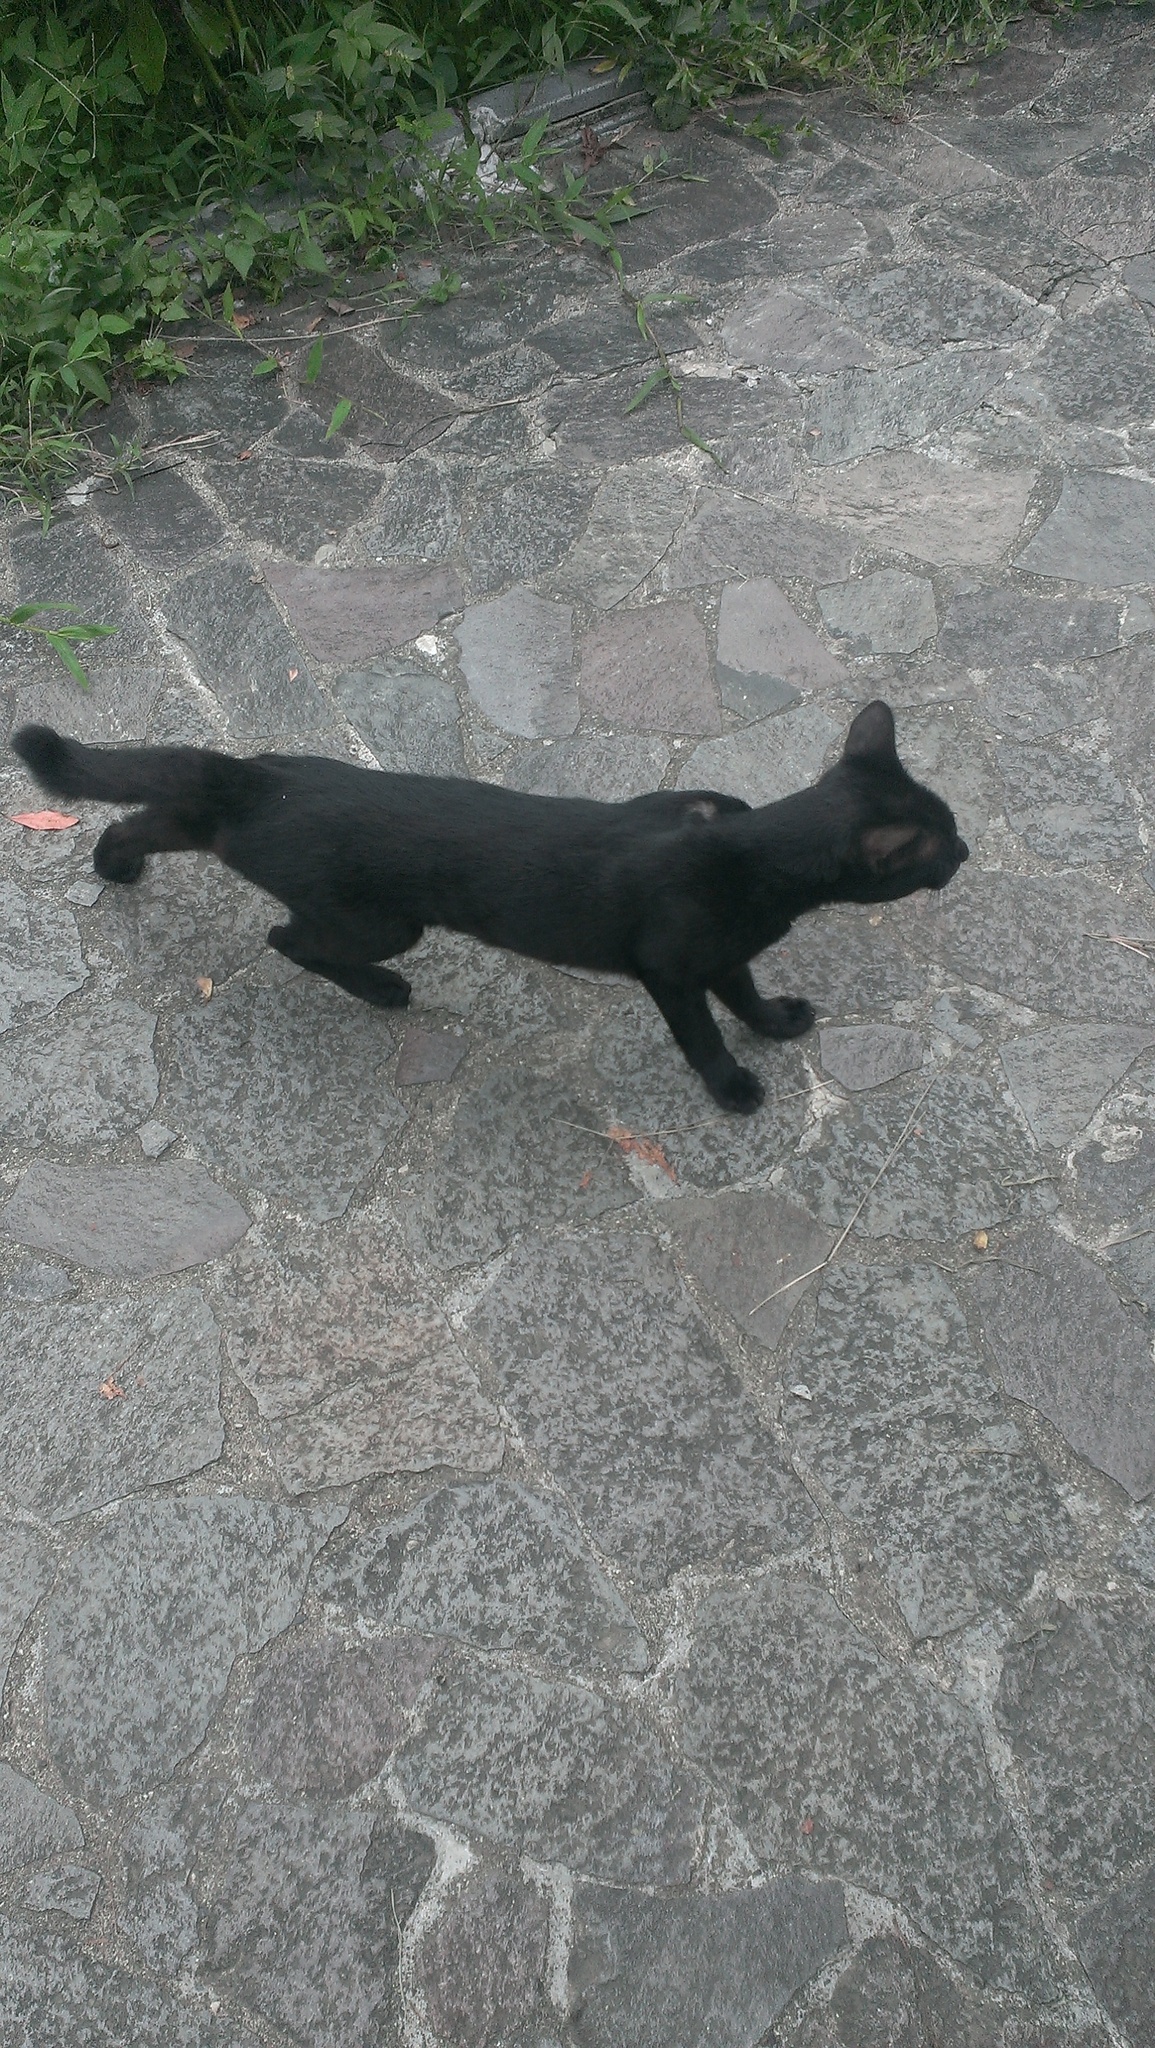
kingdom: Animalia
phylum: Chordata
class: Mammalia
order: Carnivora
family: Felidae
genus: Felis
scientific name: Felis catus
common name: Domestic cat
